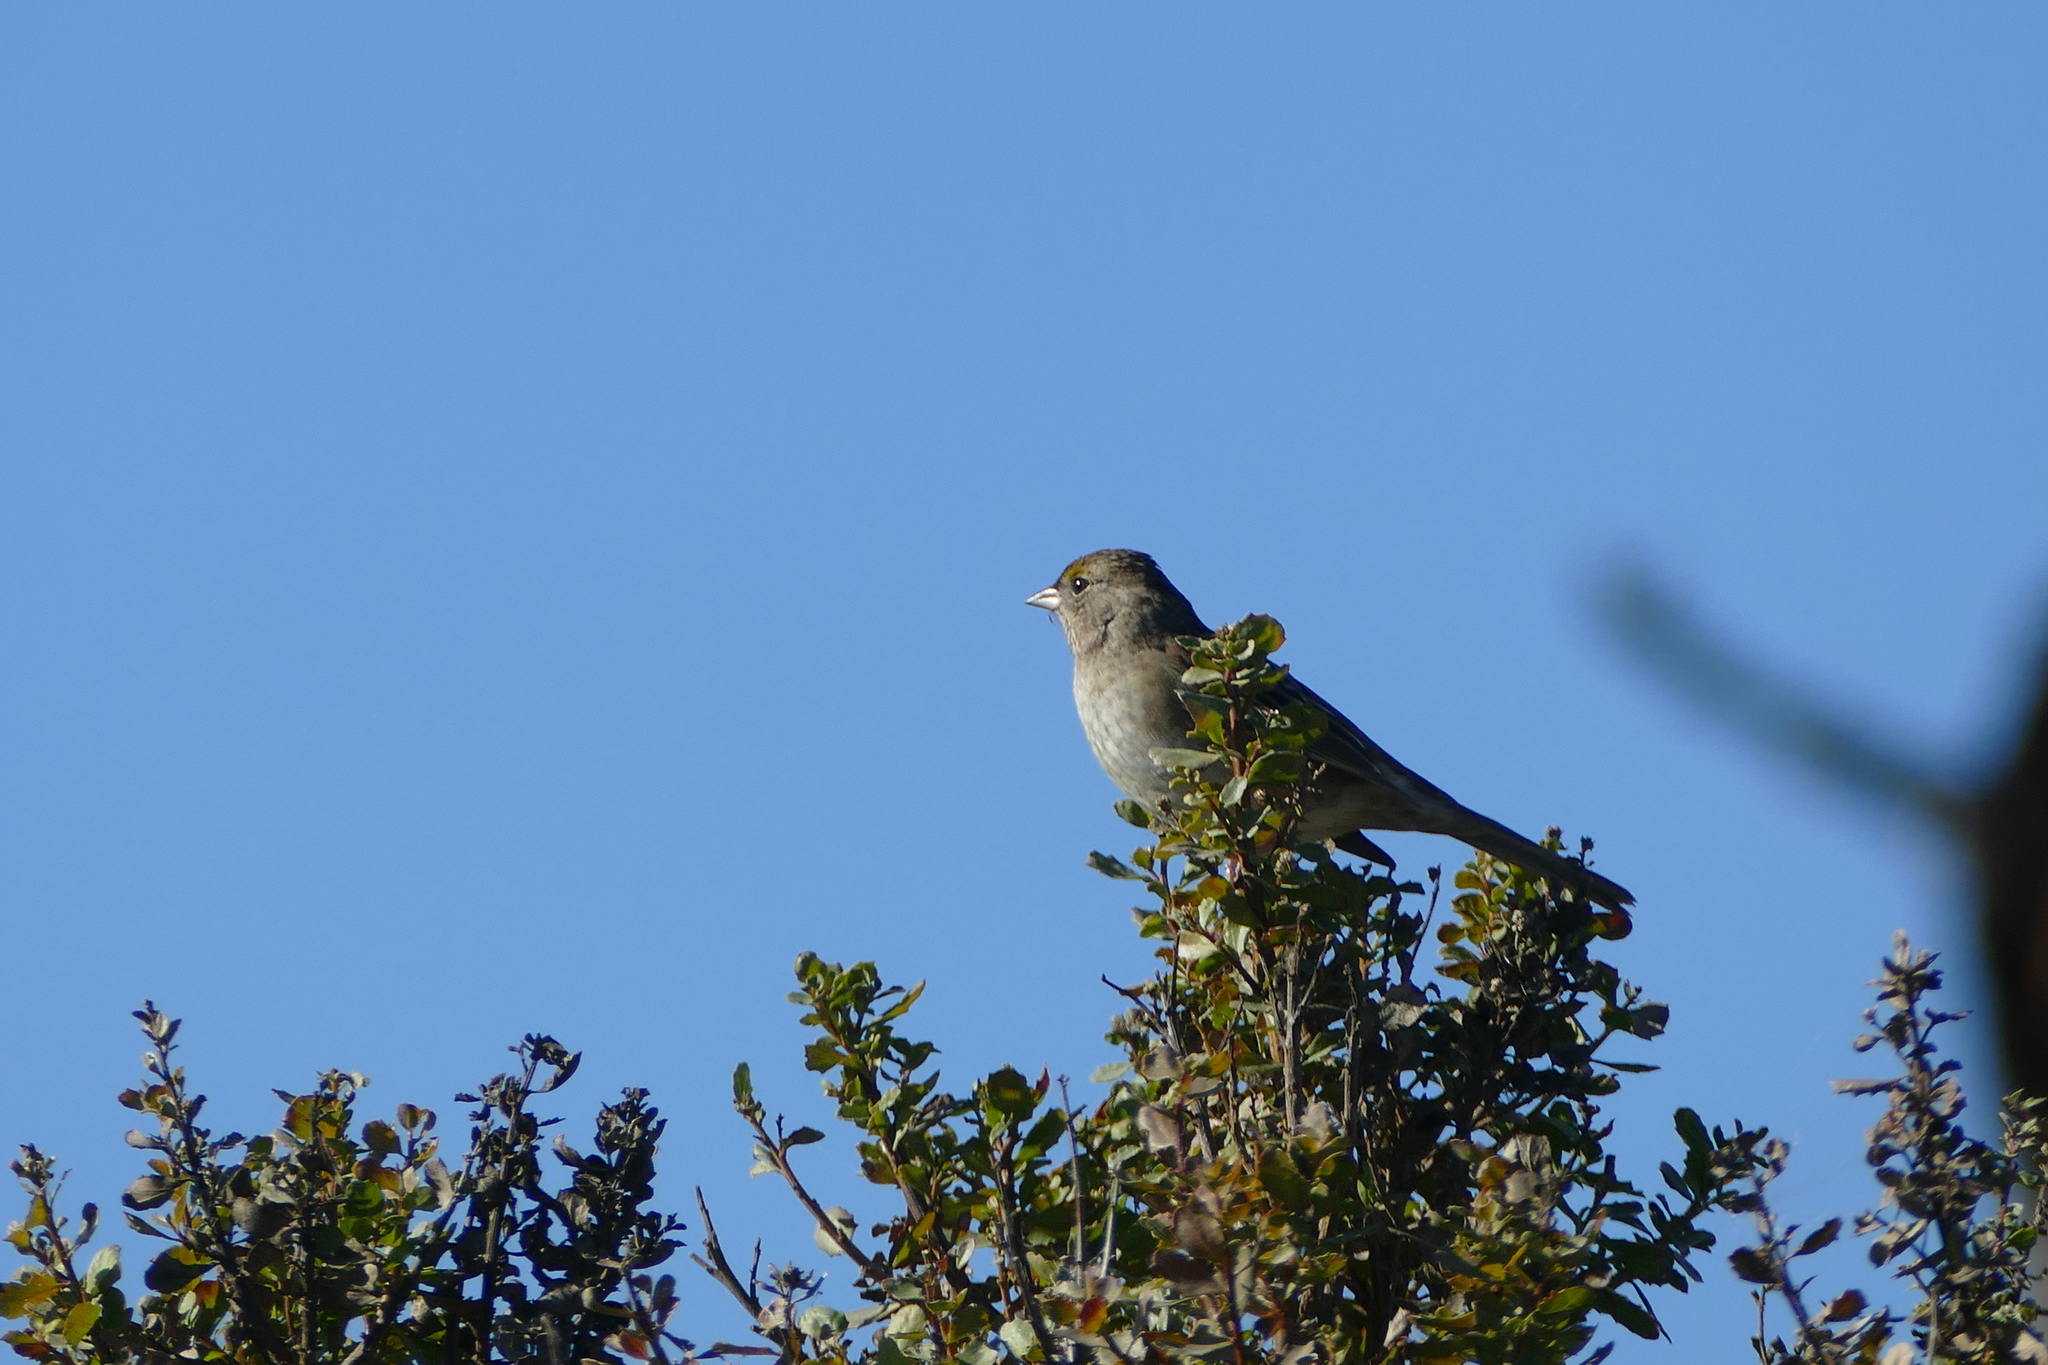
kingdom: Animalia
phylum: Chordata
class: Aves
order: Passeriformes
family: Passerellidae
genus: Zonotrichia
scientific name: Zonotrichia atricapilla
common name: Golden-crowned sparrow
